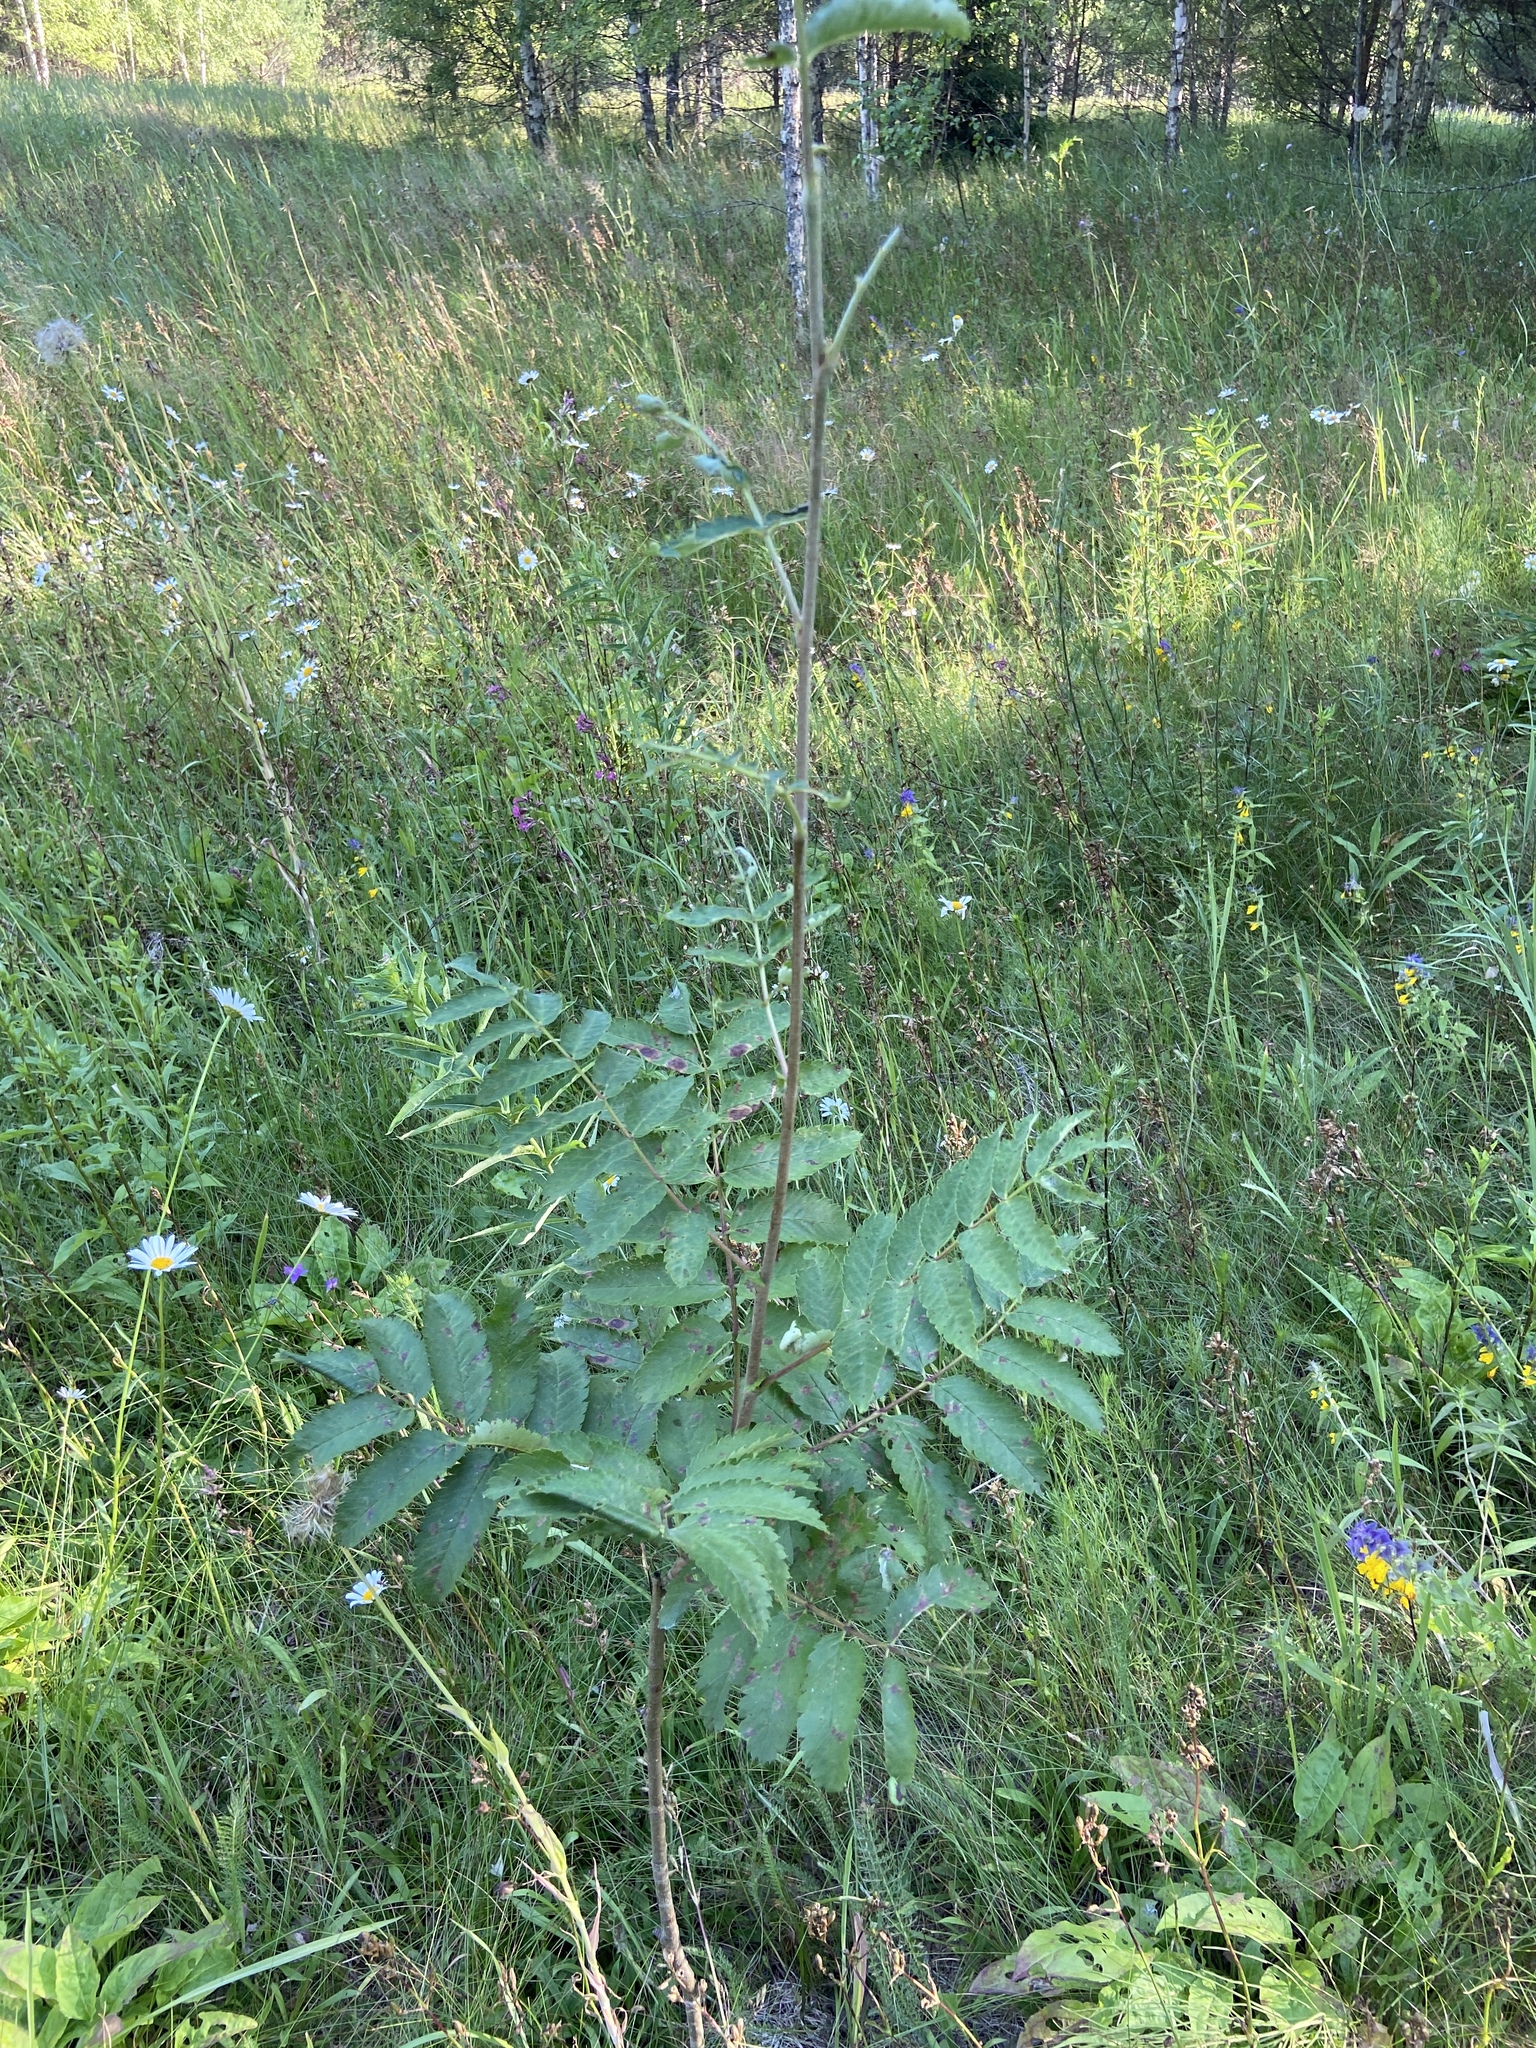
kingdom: Plantae
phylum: Tracheophyta
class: Magnoliopsida
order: Rosales
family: Rosaceae
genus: Sorbus
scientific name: Sorbus aucuparia
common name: Rowan
